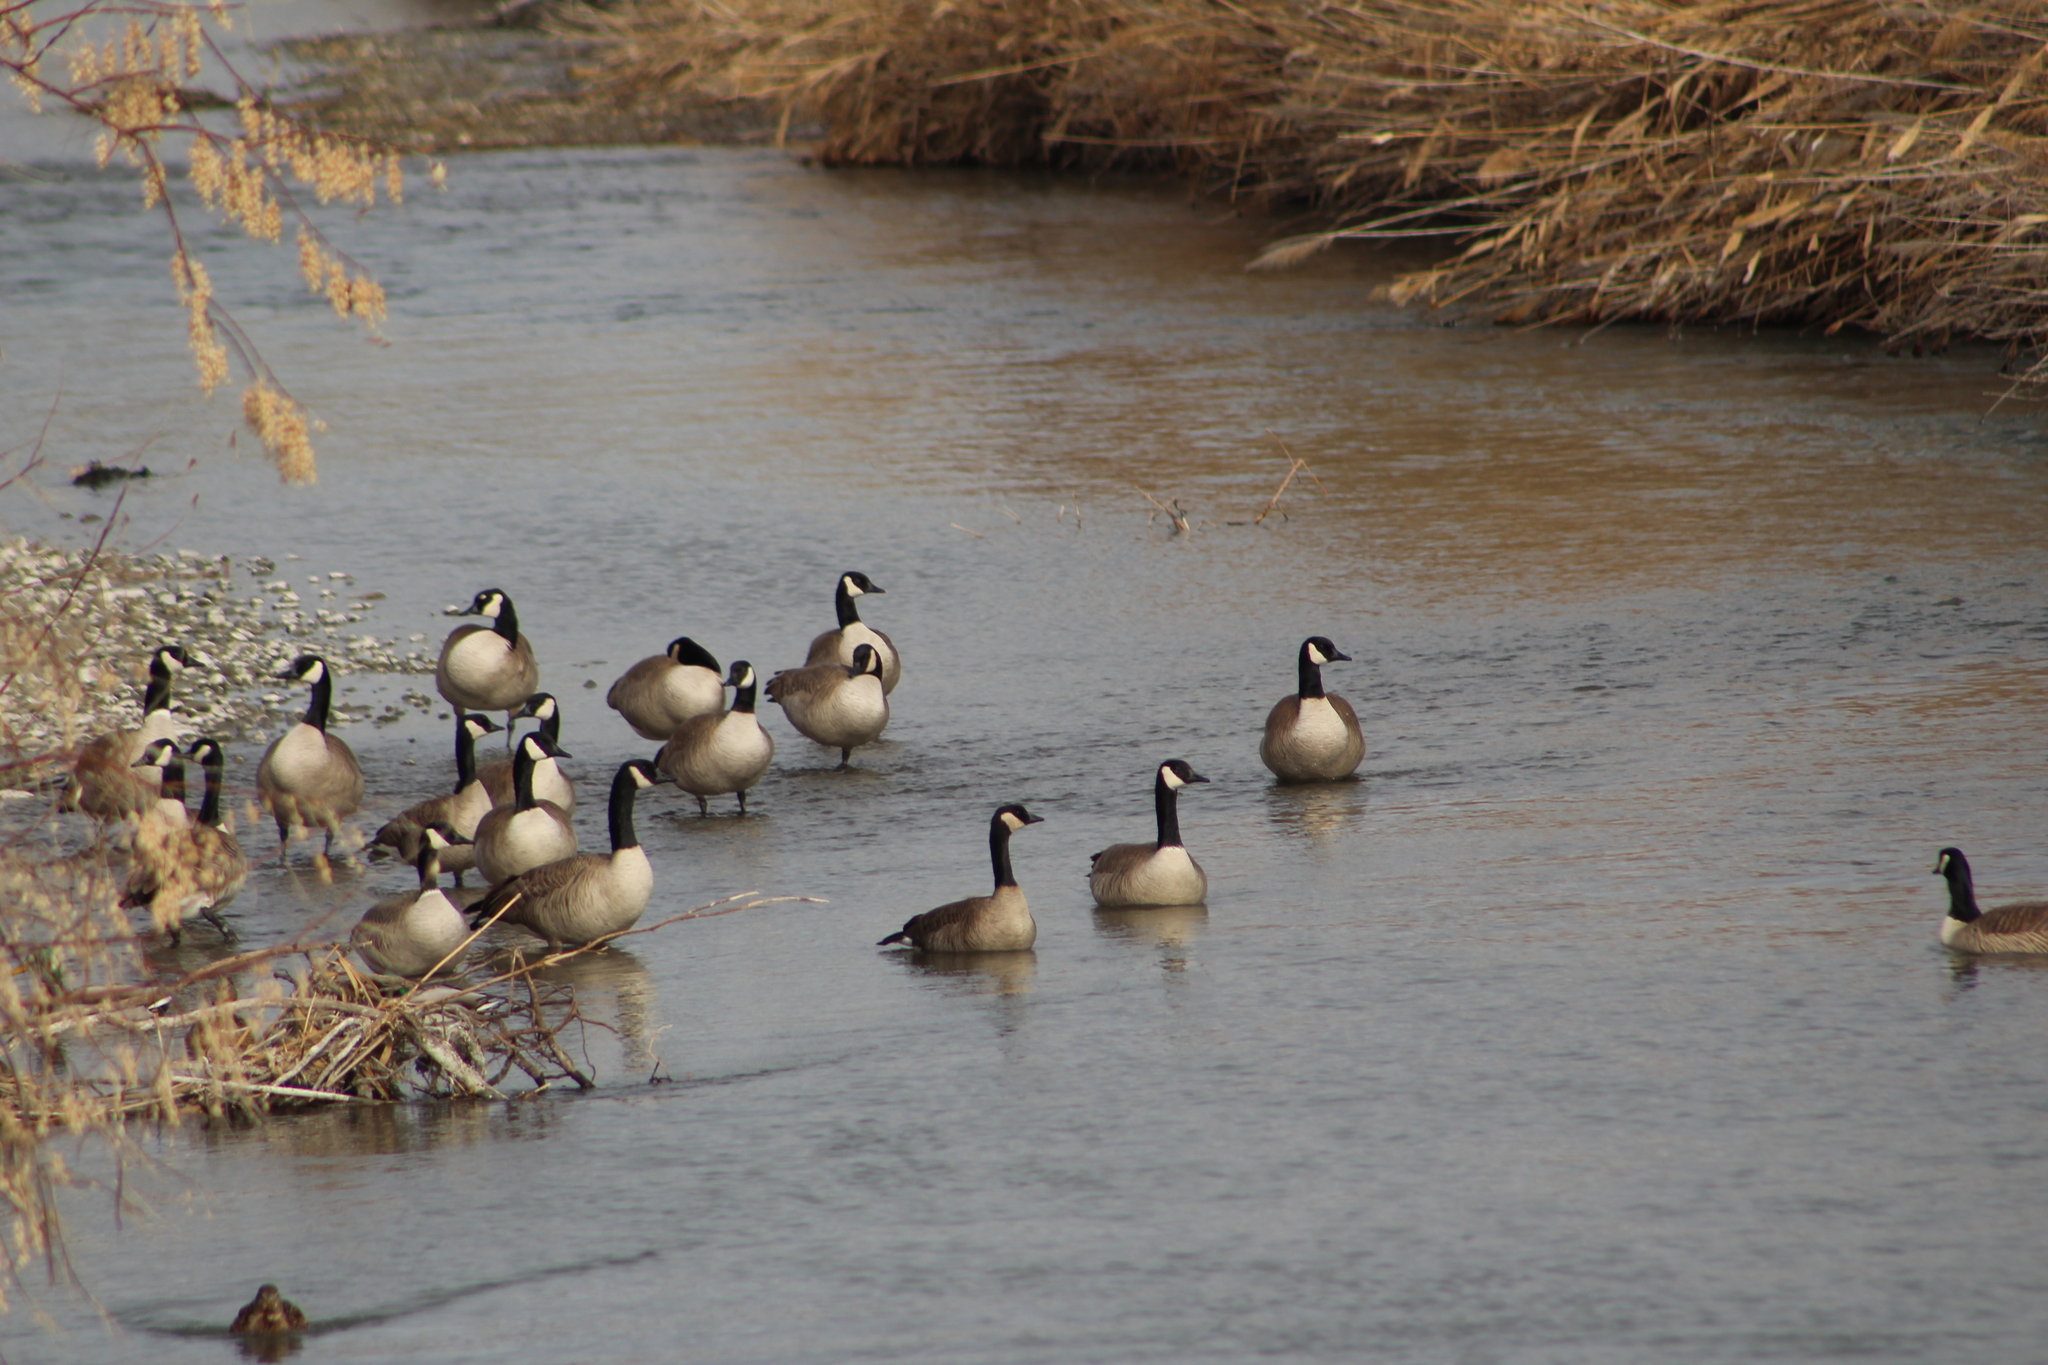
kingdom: Animalia
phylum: Chordata
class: Aves
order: Anseriformes
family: Anatidae
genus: Branta
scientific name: Branta canadensis
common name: Canada goose
